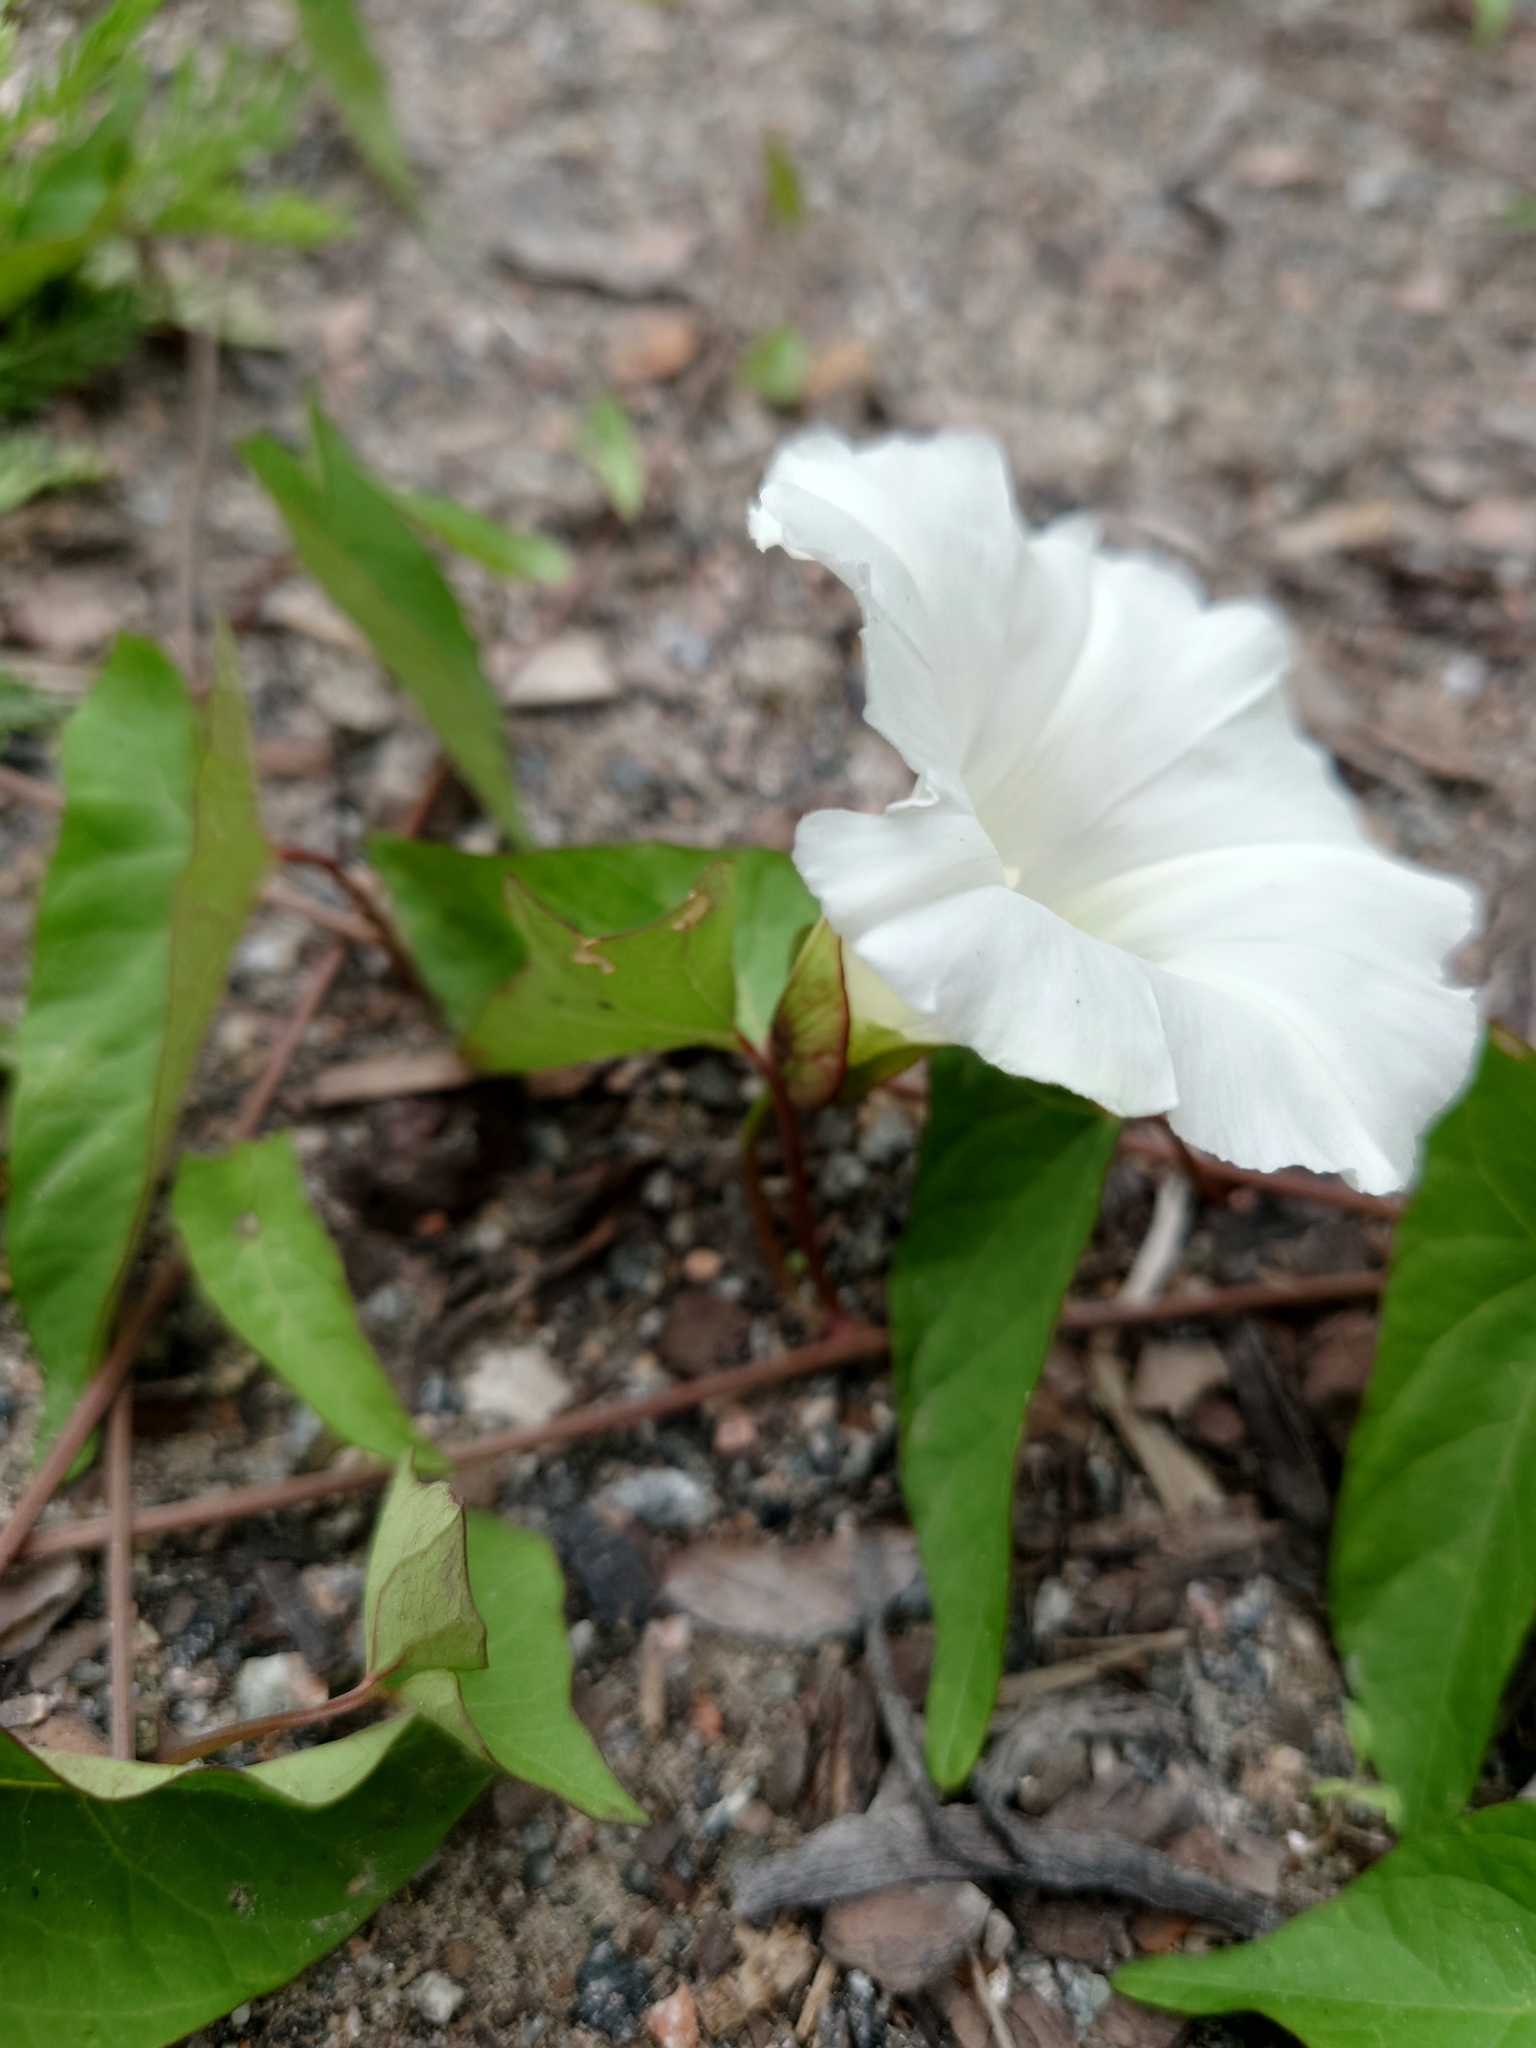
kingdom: Plantae
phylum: Tracheophyta
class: Magnoliopsida
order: Solanales
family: Convolvulaceae
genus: Calystegia
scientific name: Calystegia sepium
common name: Hedge bindweed
